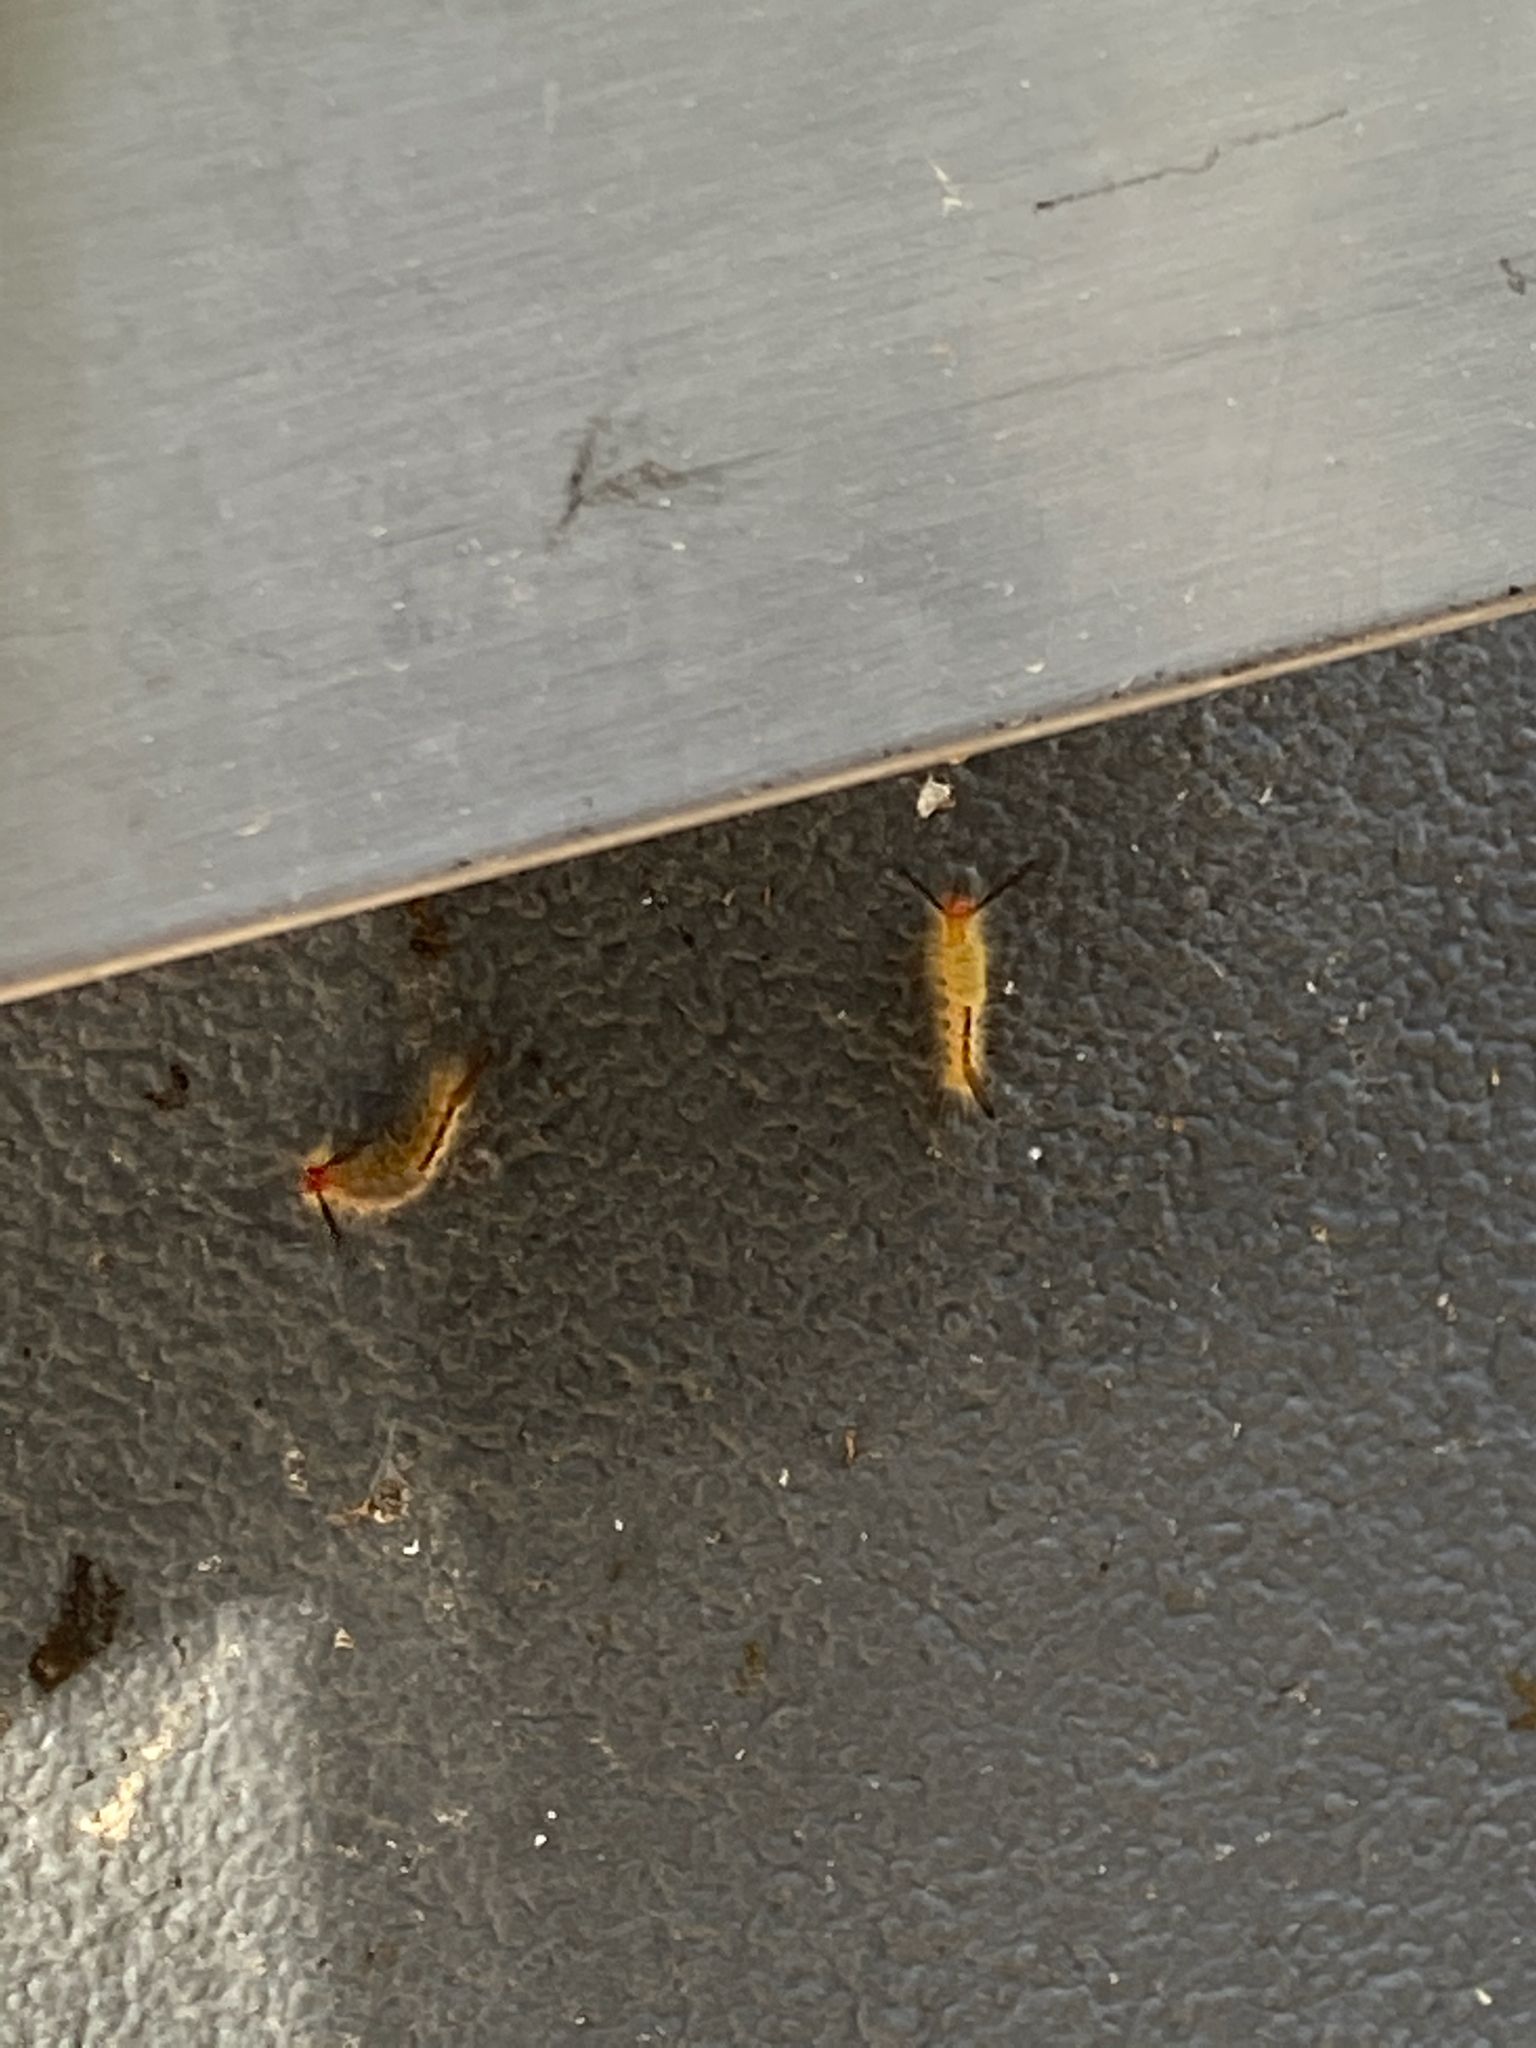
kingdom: Animalia
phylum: Arthropoda
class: Insecta
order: Lepidoptera
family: Erebidae
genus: Orgyia
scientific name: Orgyia leucostigma
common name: White-marked tussock moth
